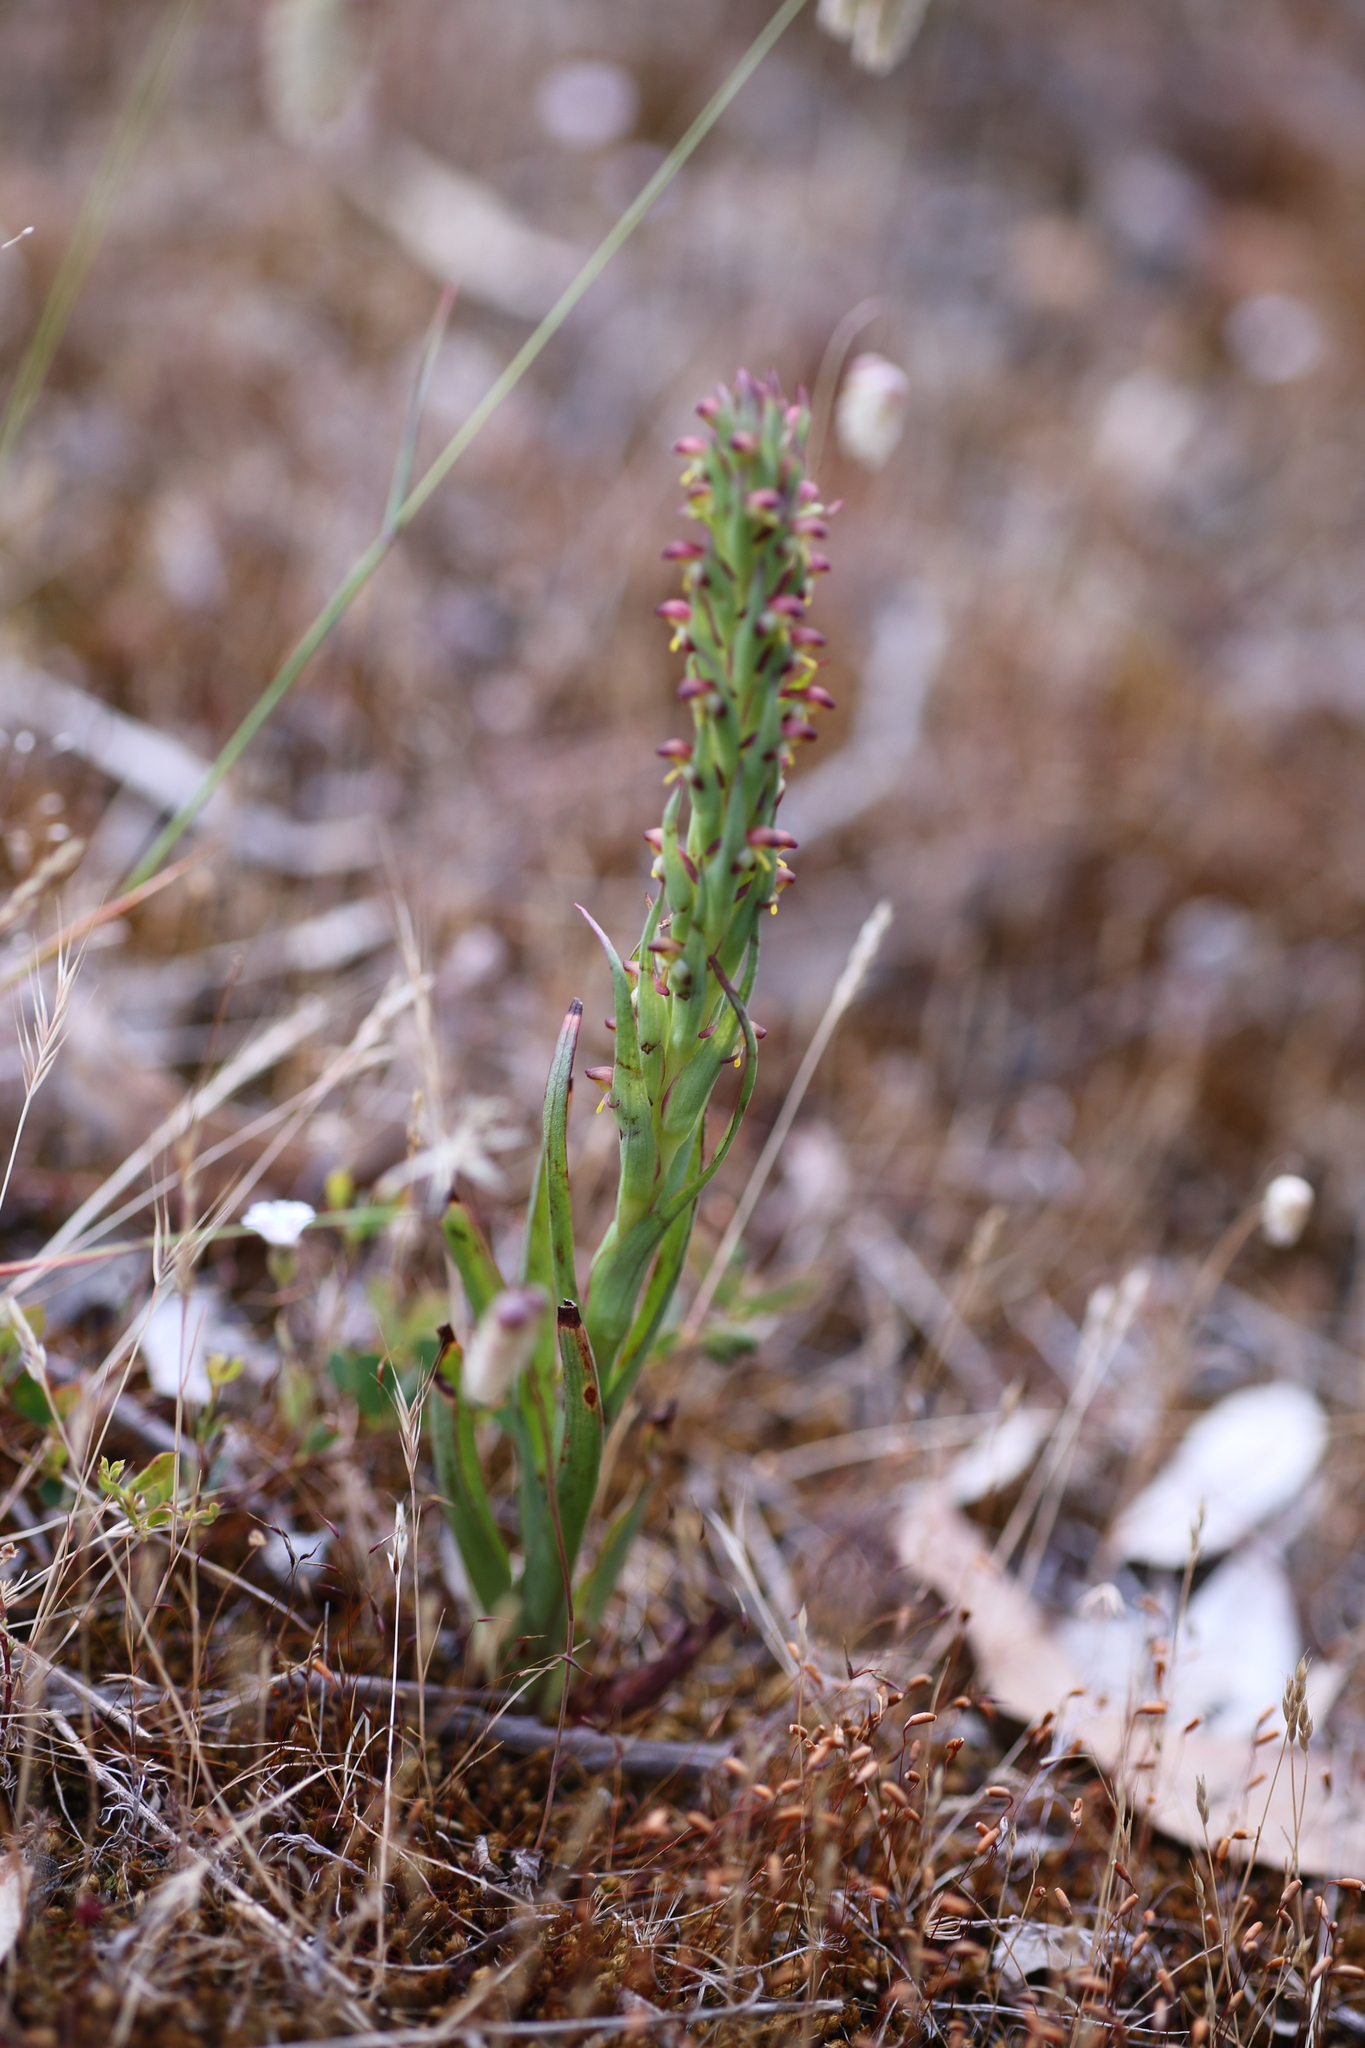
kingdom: Plantae
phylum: Tracheophyta
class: Liliopsida
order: Asparagales
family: Orchidaceae
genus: Disa
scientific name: Disa bracteata
